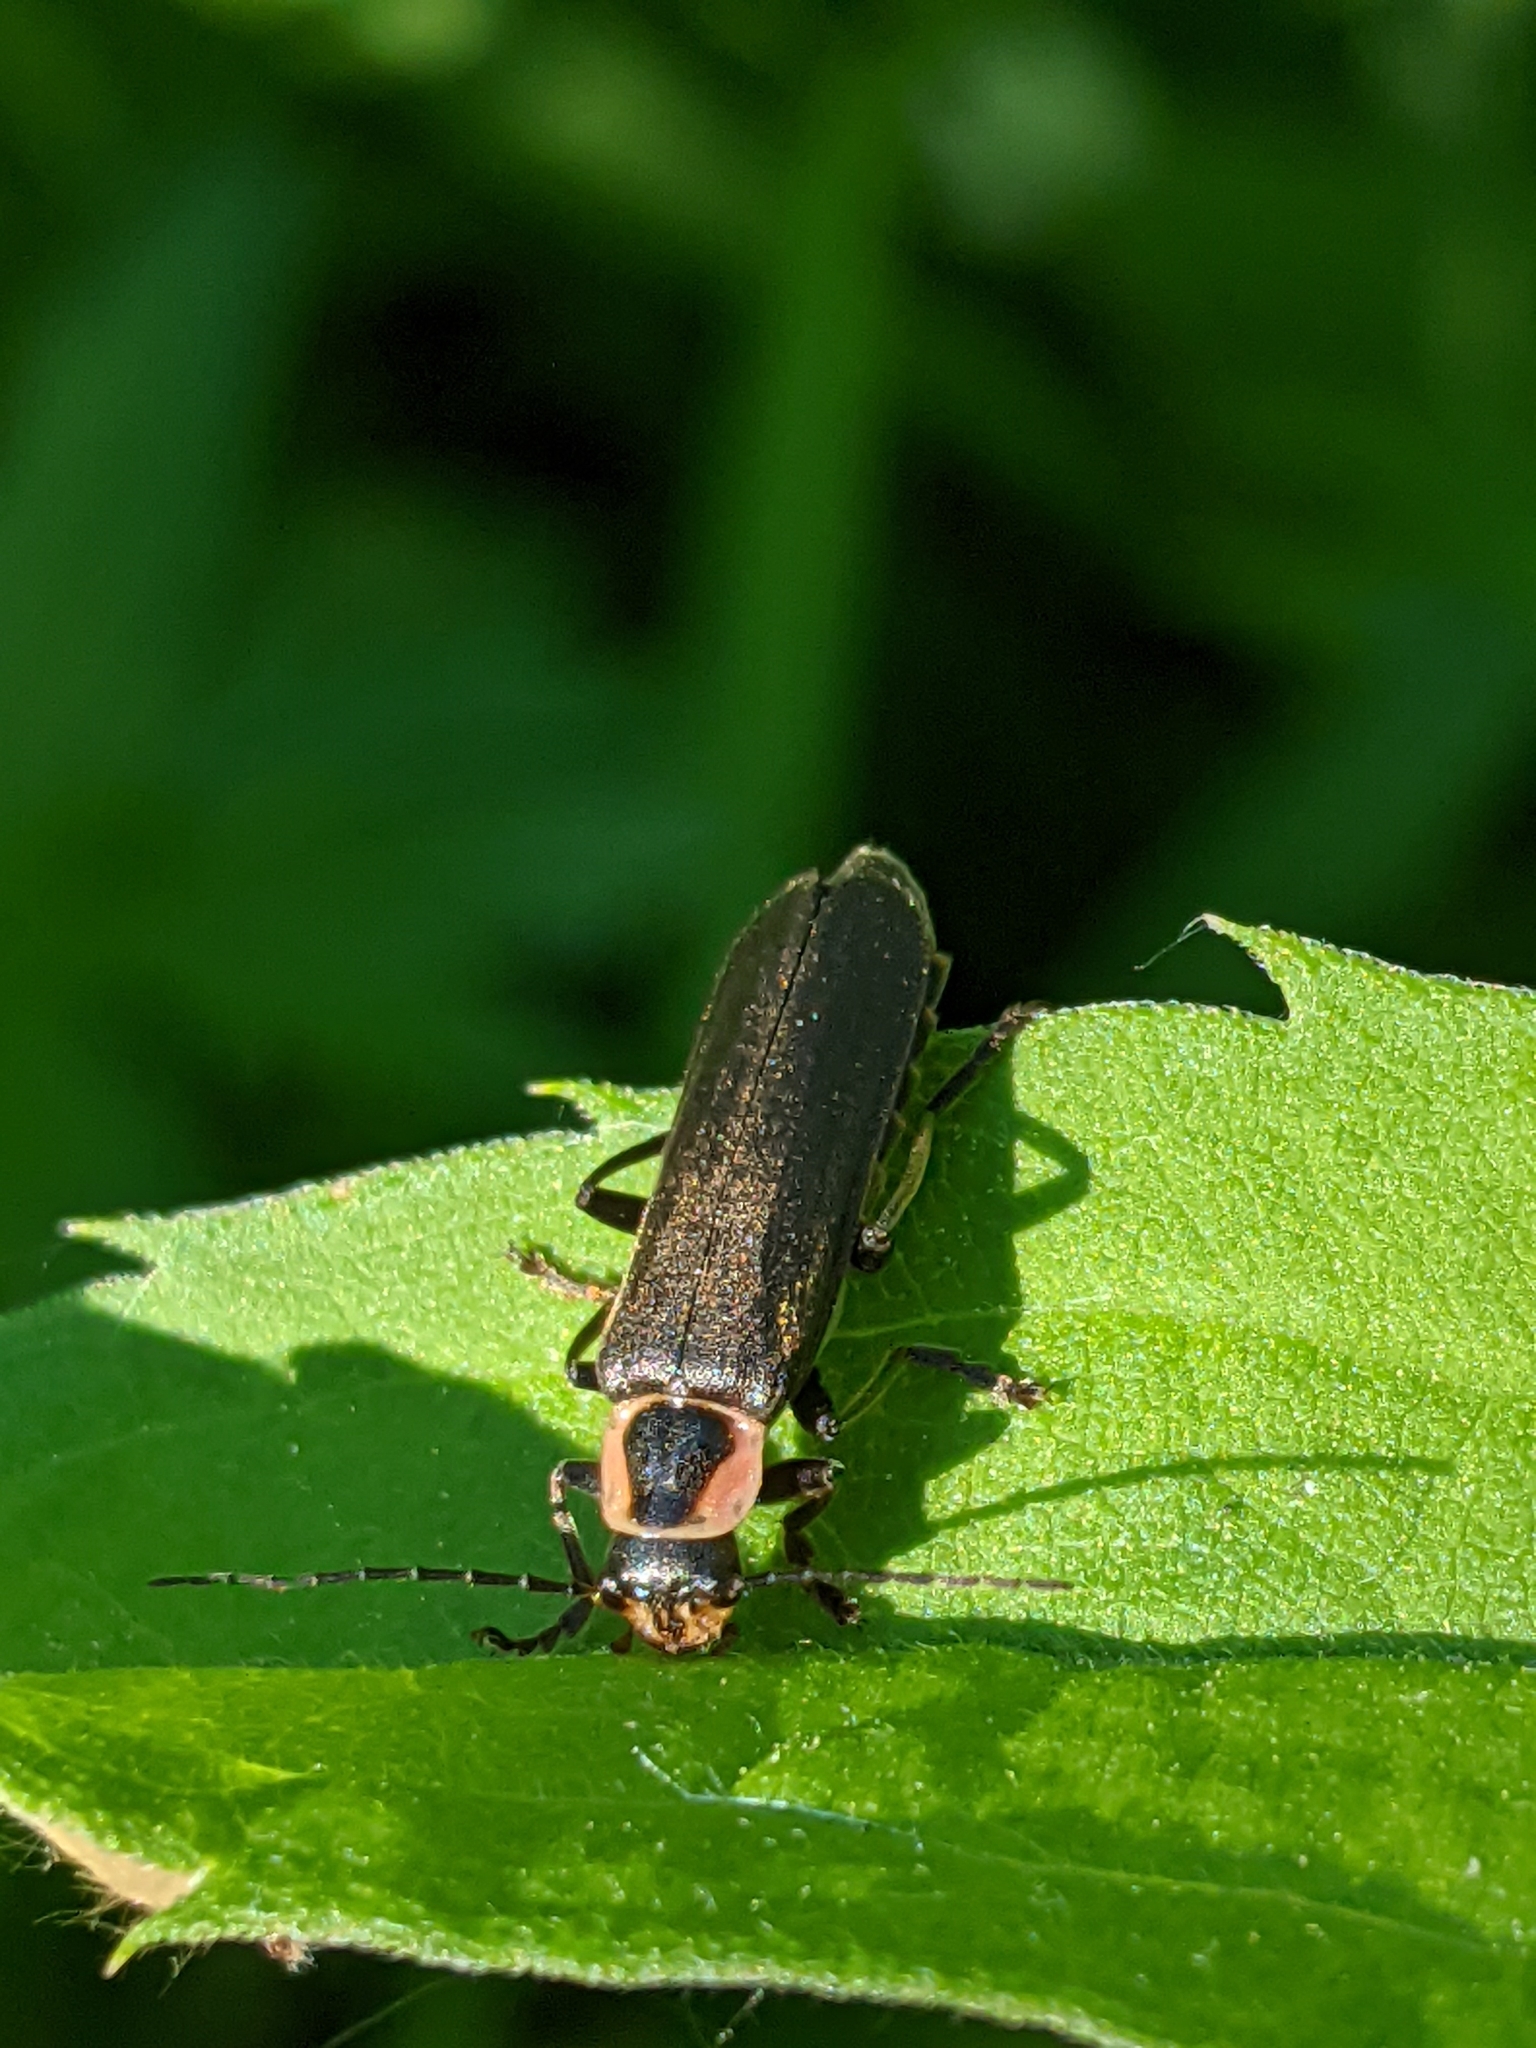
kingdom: Animalia
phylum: Arthropoda
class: Insecta
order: Coleoptera
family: Cantharidae
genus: Rhaxonycha
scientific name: Rhaxonycha carolina
